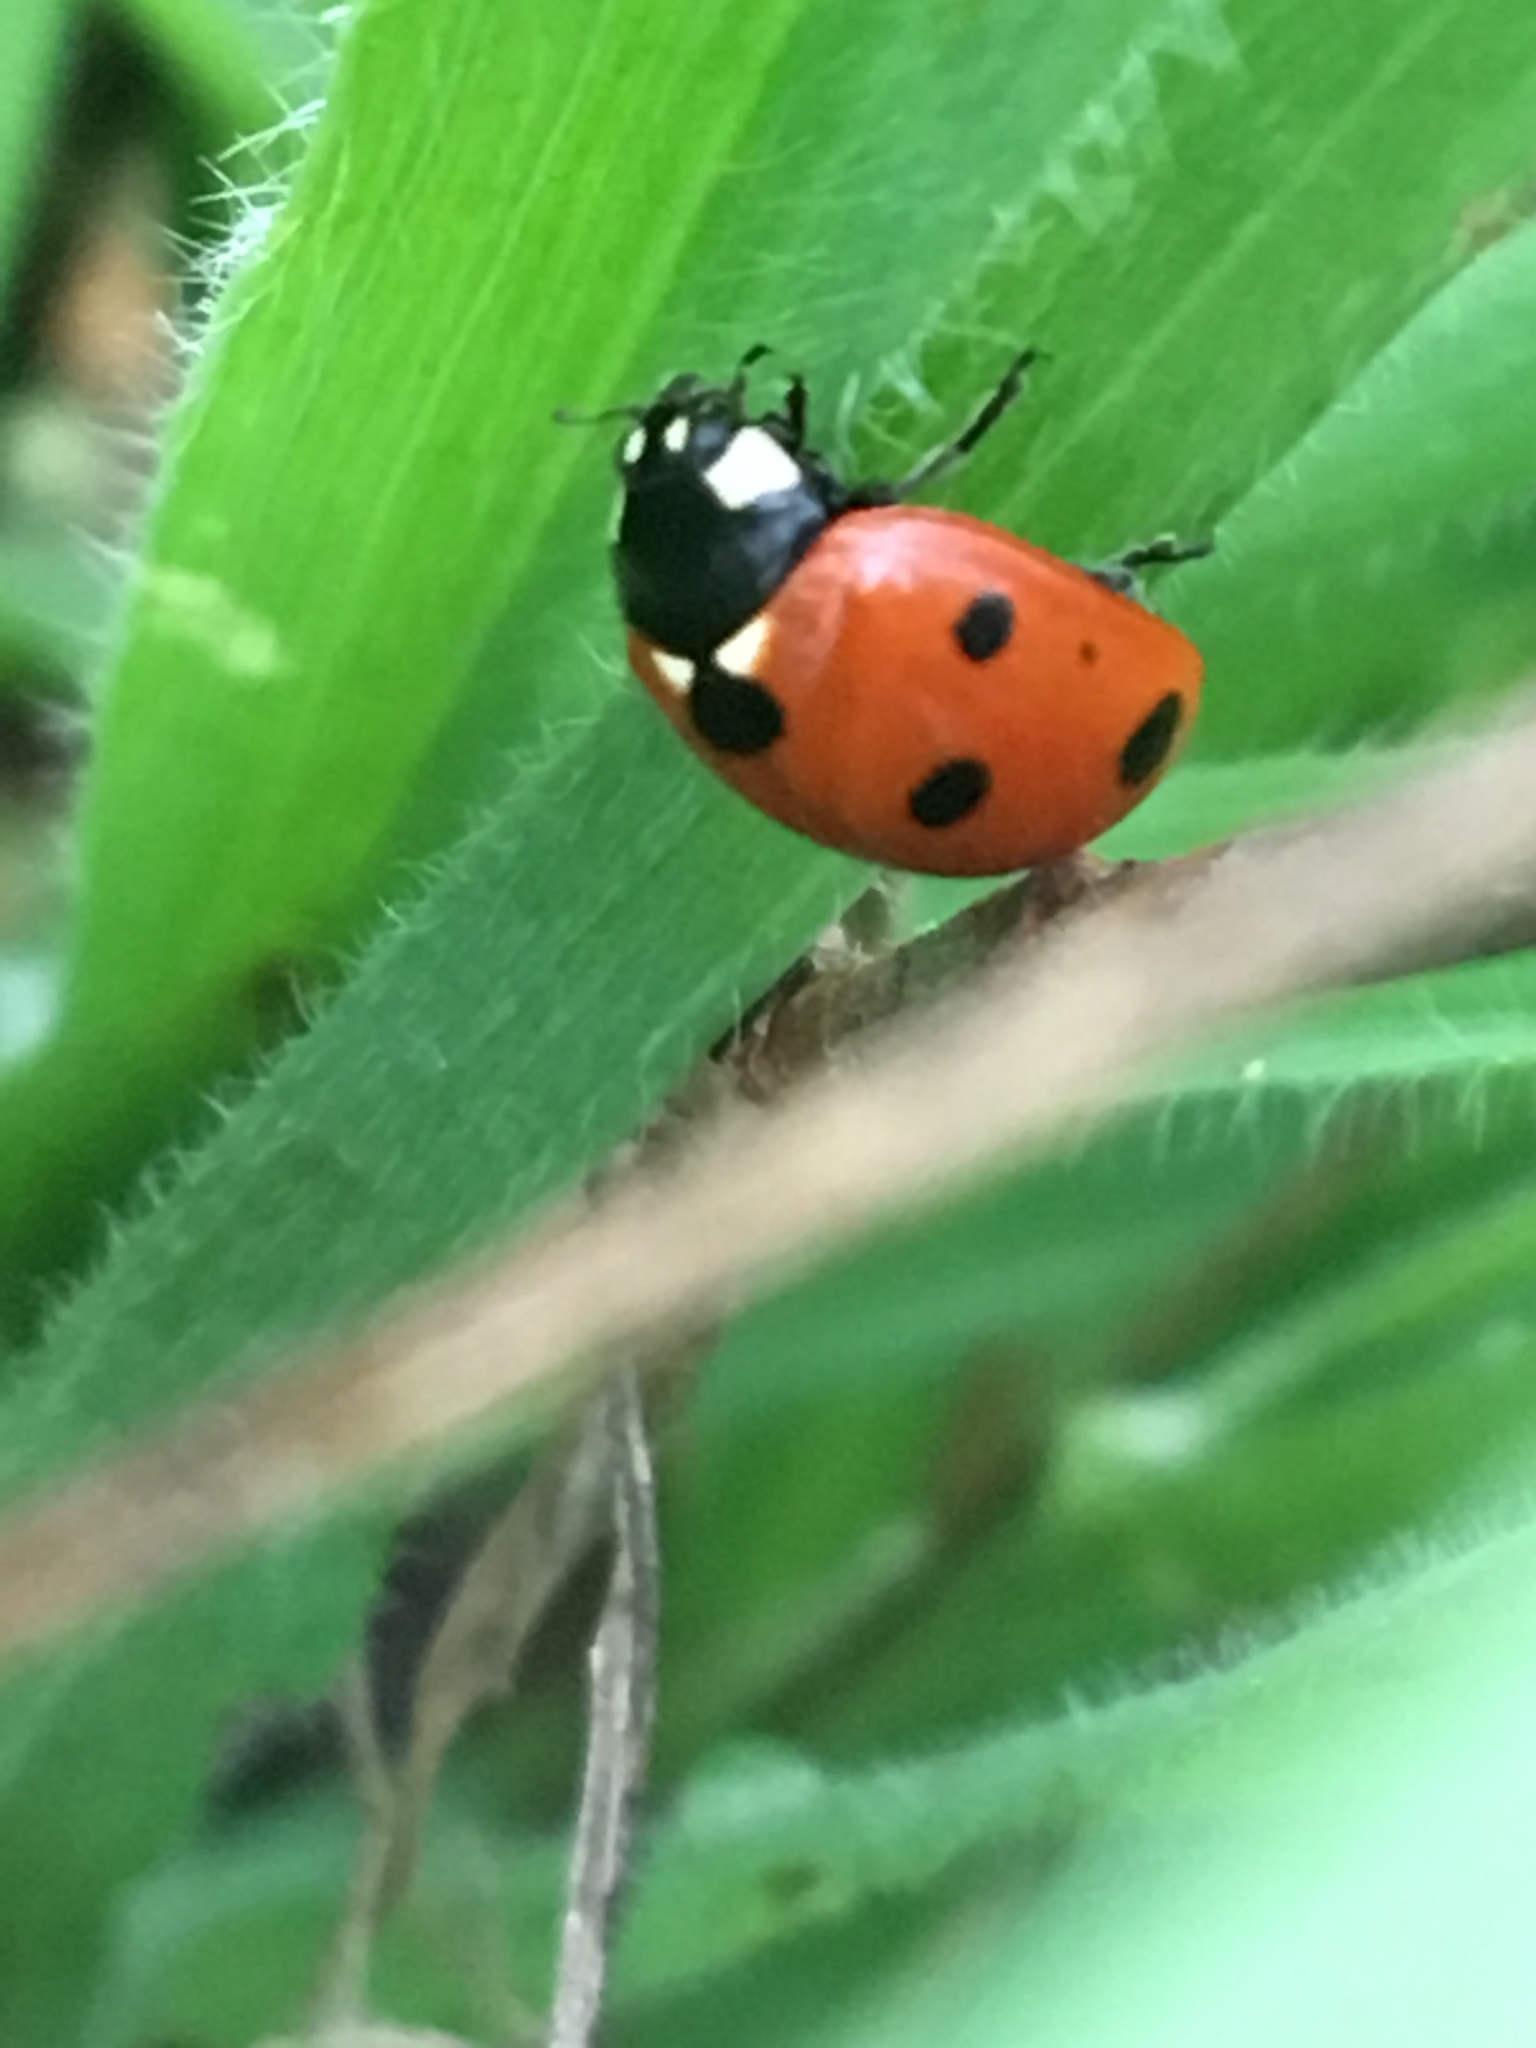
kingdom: Animalia
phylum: Arthropoda
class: Insecta
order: Coleoptera
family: Coccinellidae
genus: Coccinella
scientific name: Coccinella septempunctata
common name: Sevenspotted lady beetle
